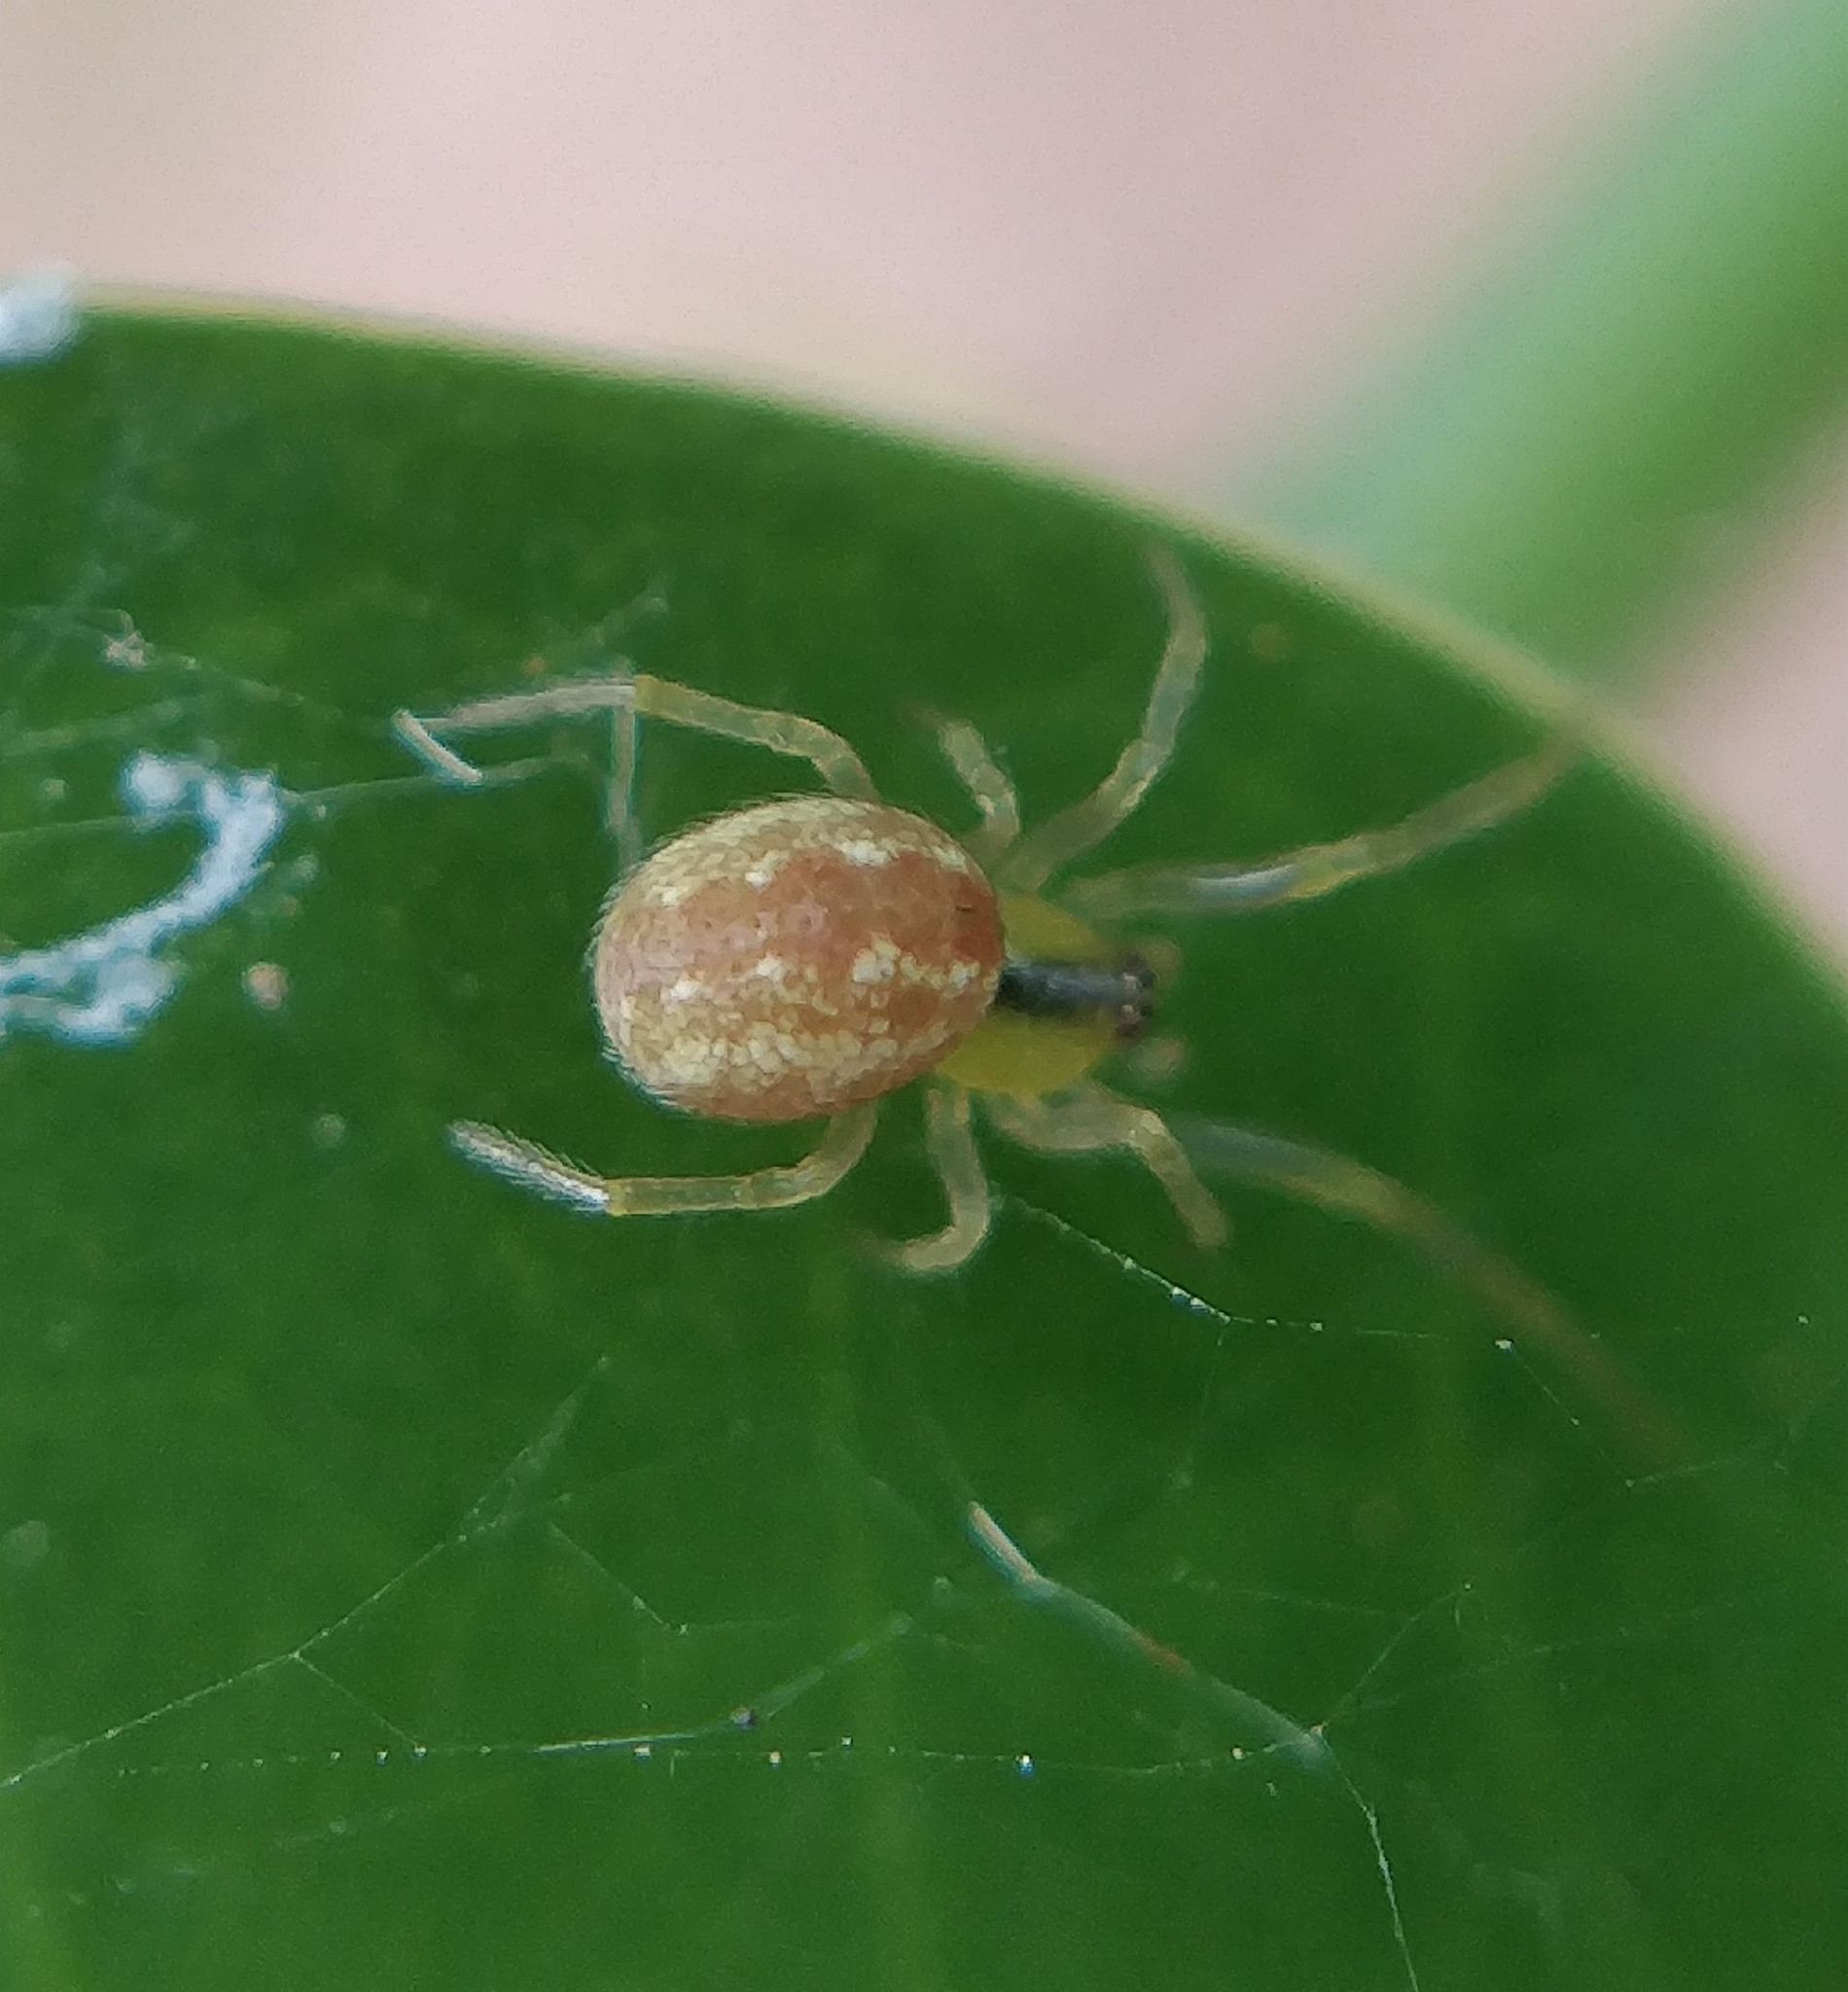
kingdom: Animalia
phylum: Arthropoda
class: Arachnida
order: Araneae
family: Theridiidae
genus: Kochiura
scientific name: Kochiura aulica
